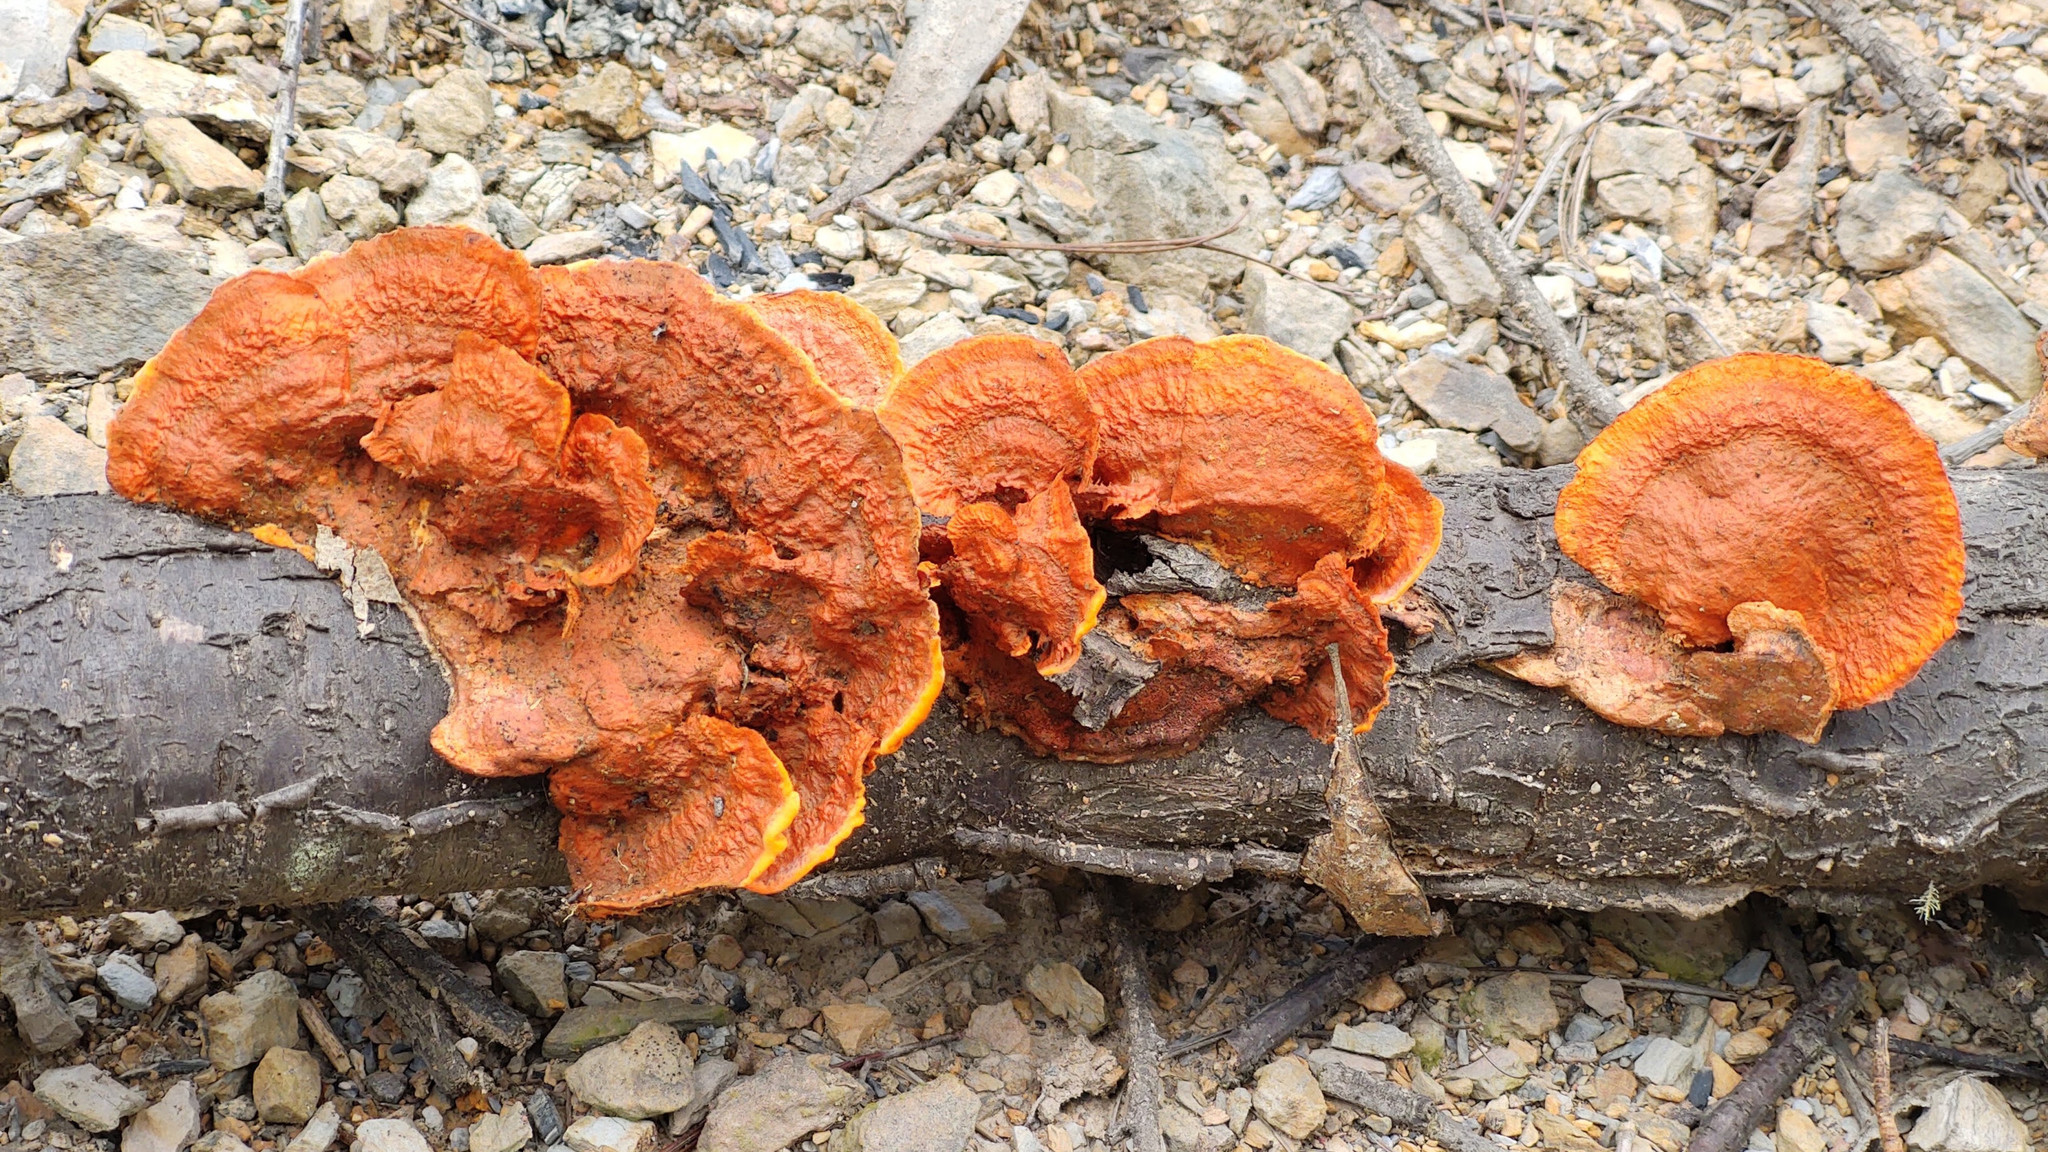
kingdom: Fungi
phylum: Basidiomycota
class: Agaricomycetes
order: Polyporales
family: Polyporaceae
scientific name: Polyporaceae
